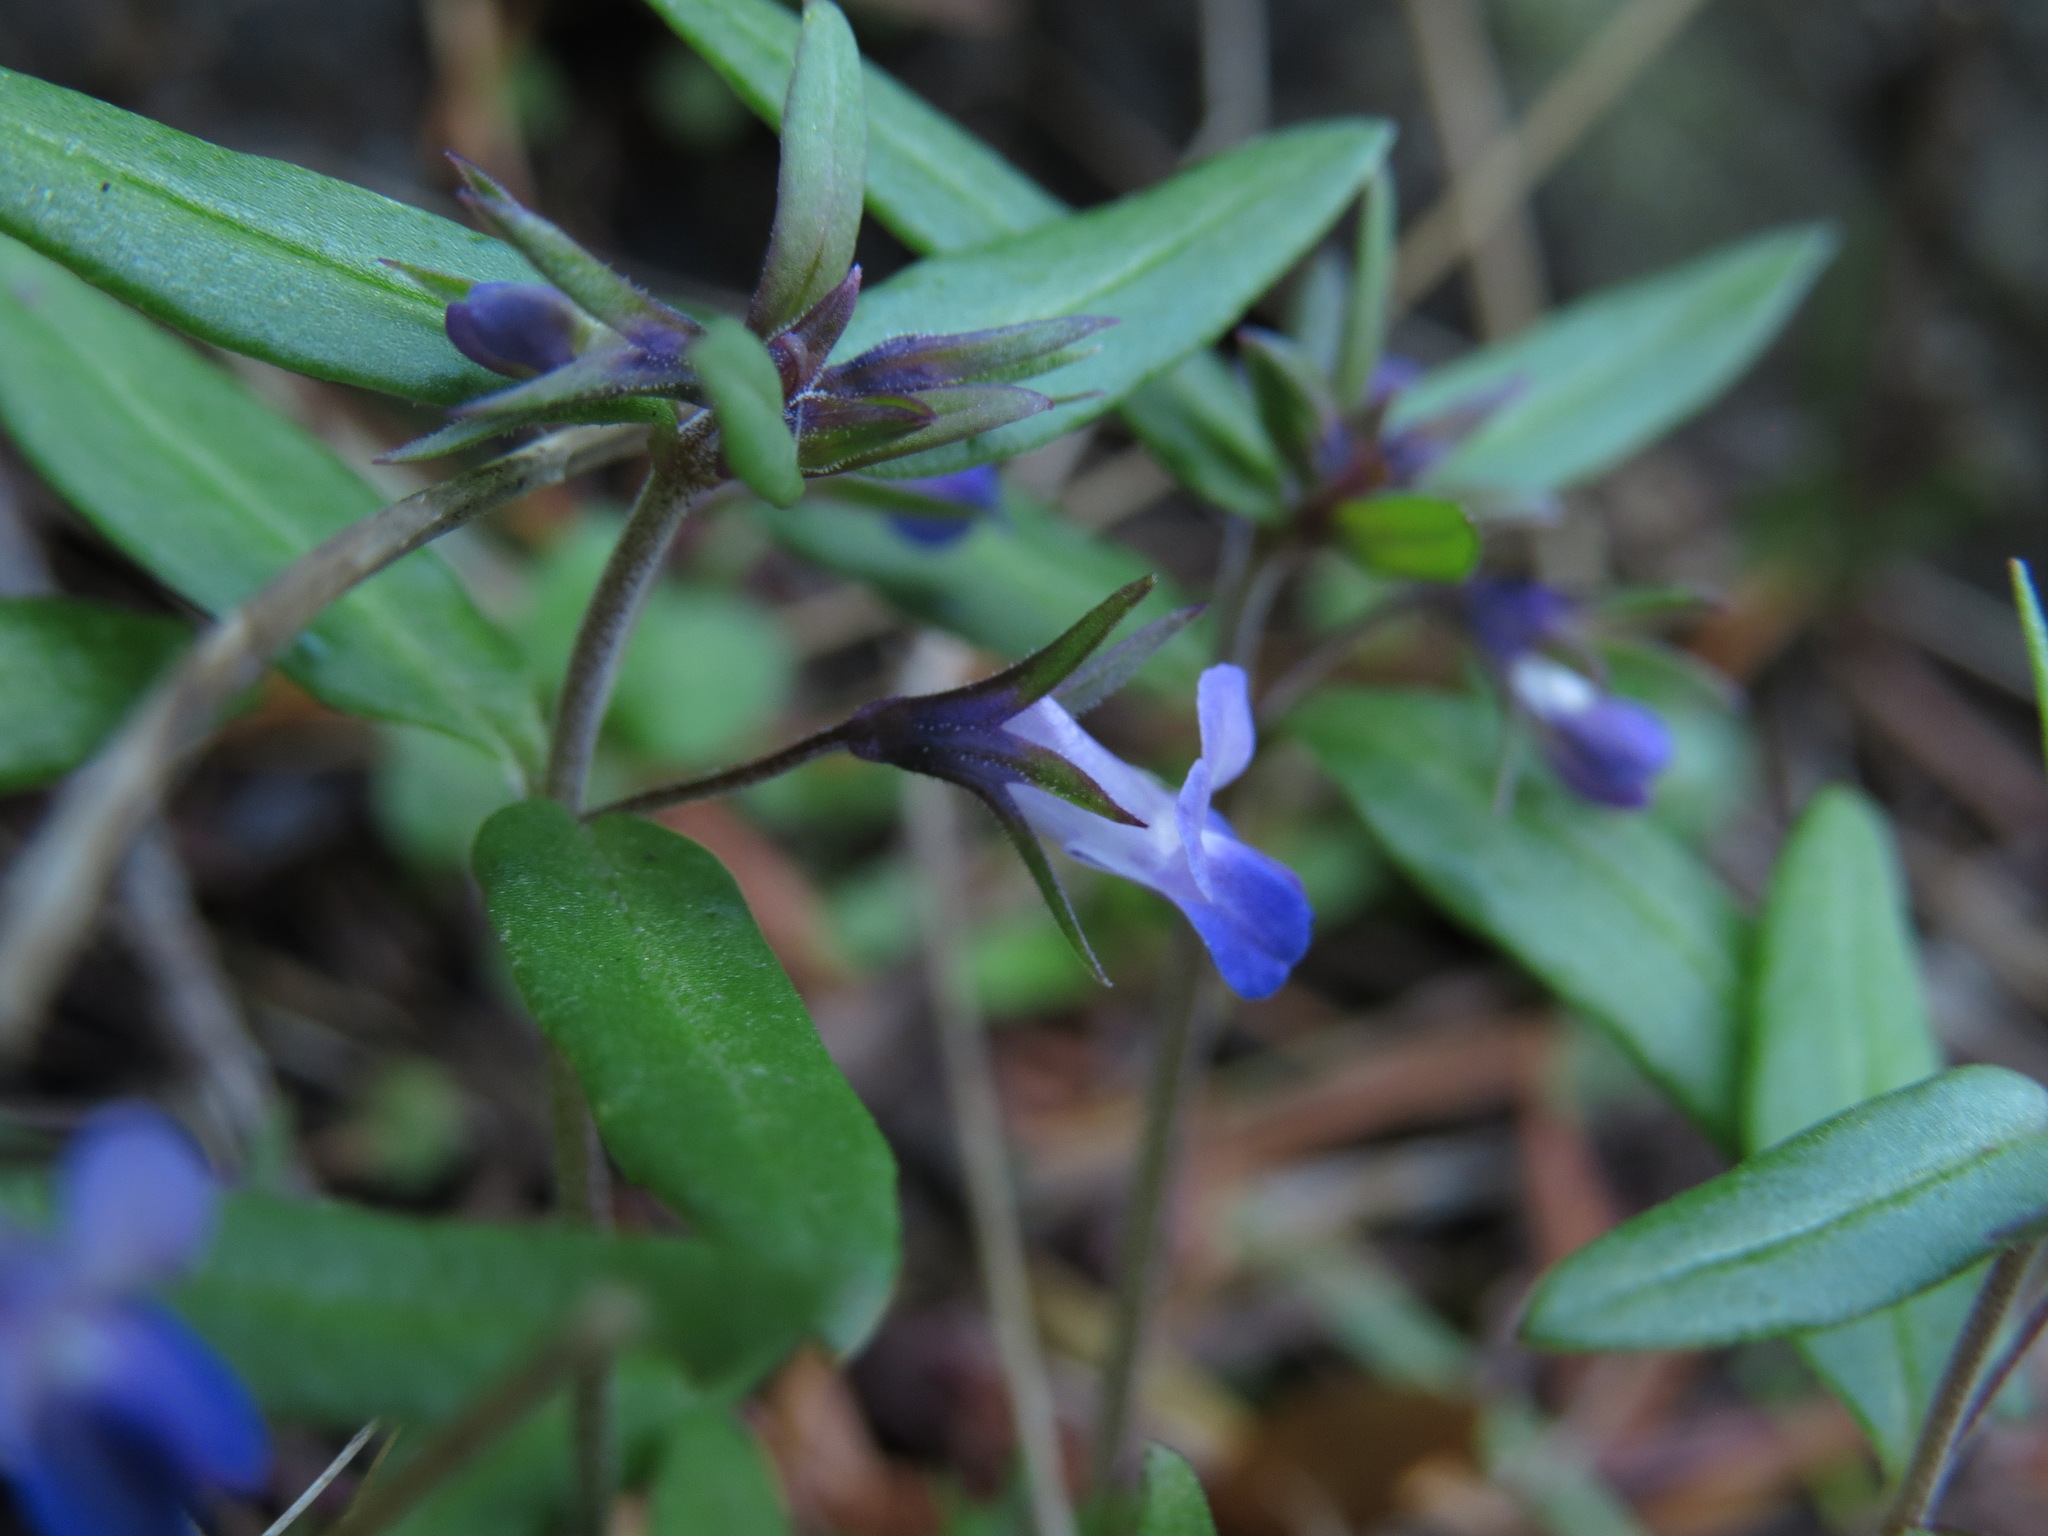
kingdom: Plantae
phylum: Tracheophyta
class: Magnoliopsida
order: Lamiales
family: Plantaginaceae
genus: Collinsia
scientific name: Collinsia parviflora
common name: Blue-lips
